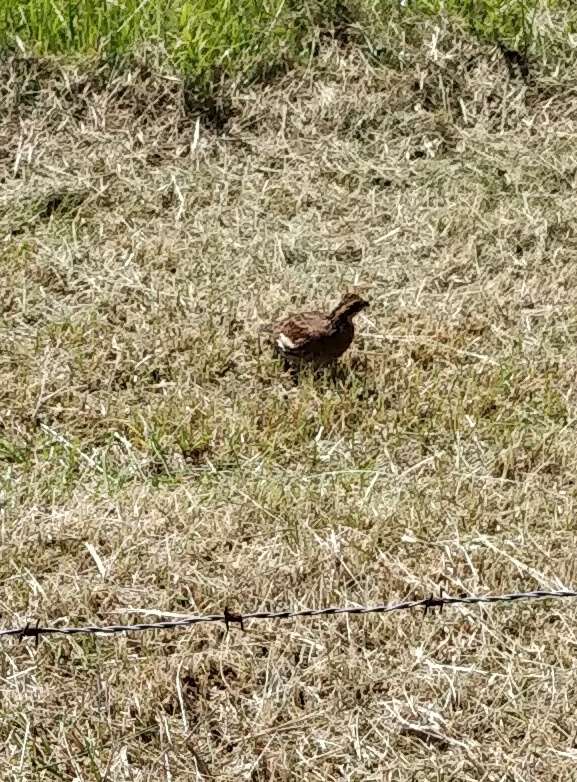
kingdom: Animalia
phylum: Chordata
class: Aves
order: Galliformes
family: Odontophoridae
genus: Colinus
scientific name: Colinus virginianus
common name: Northern bobwhite
